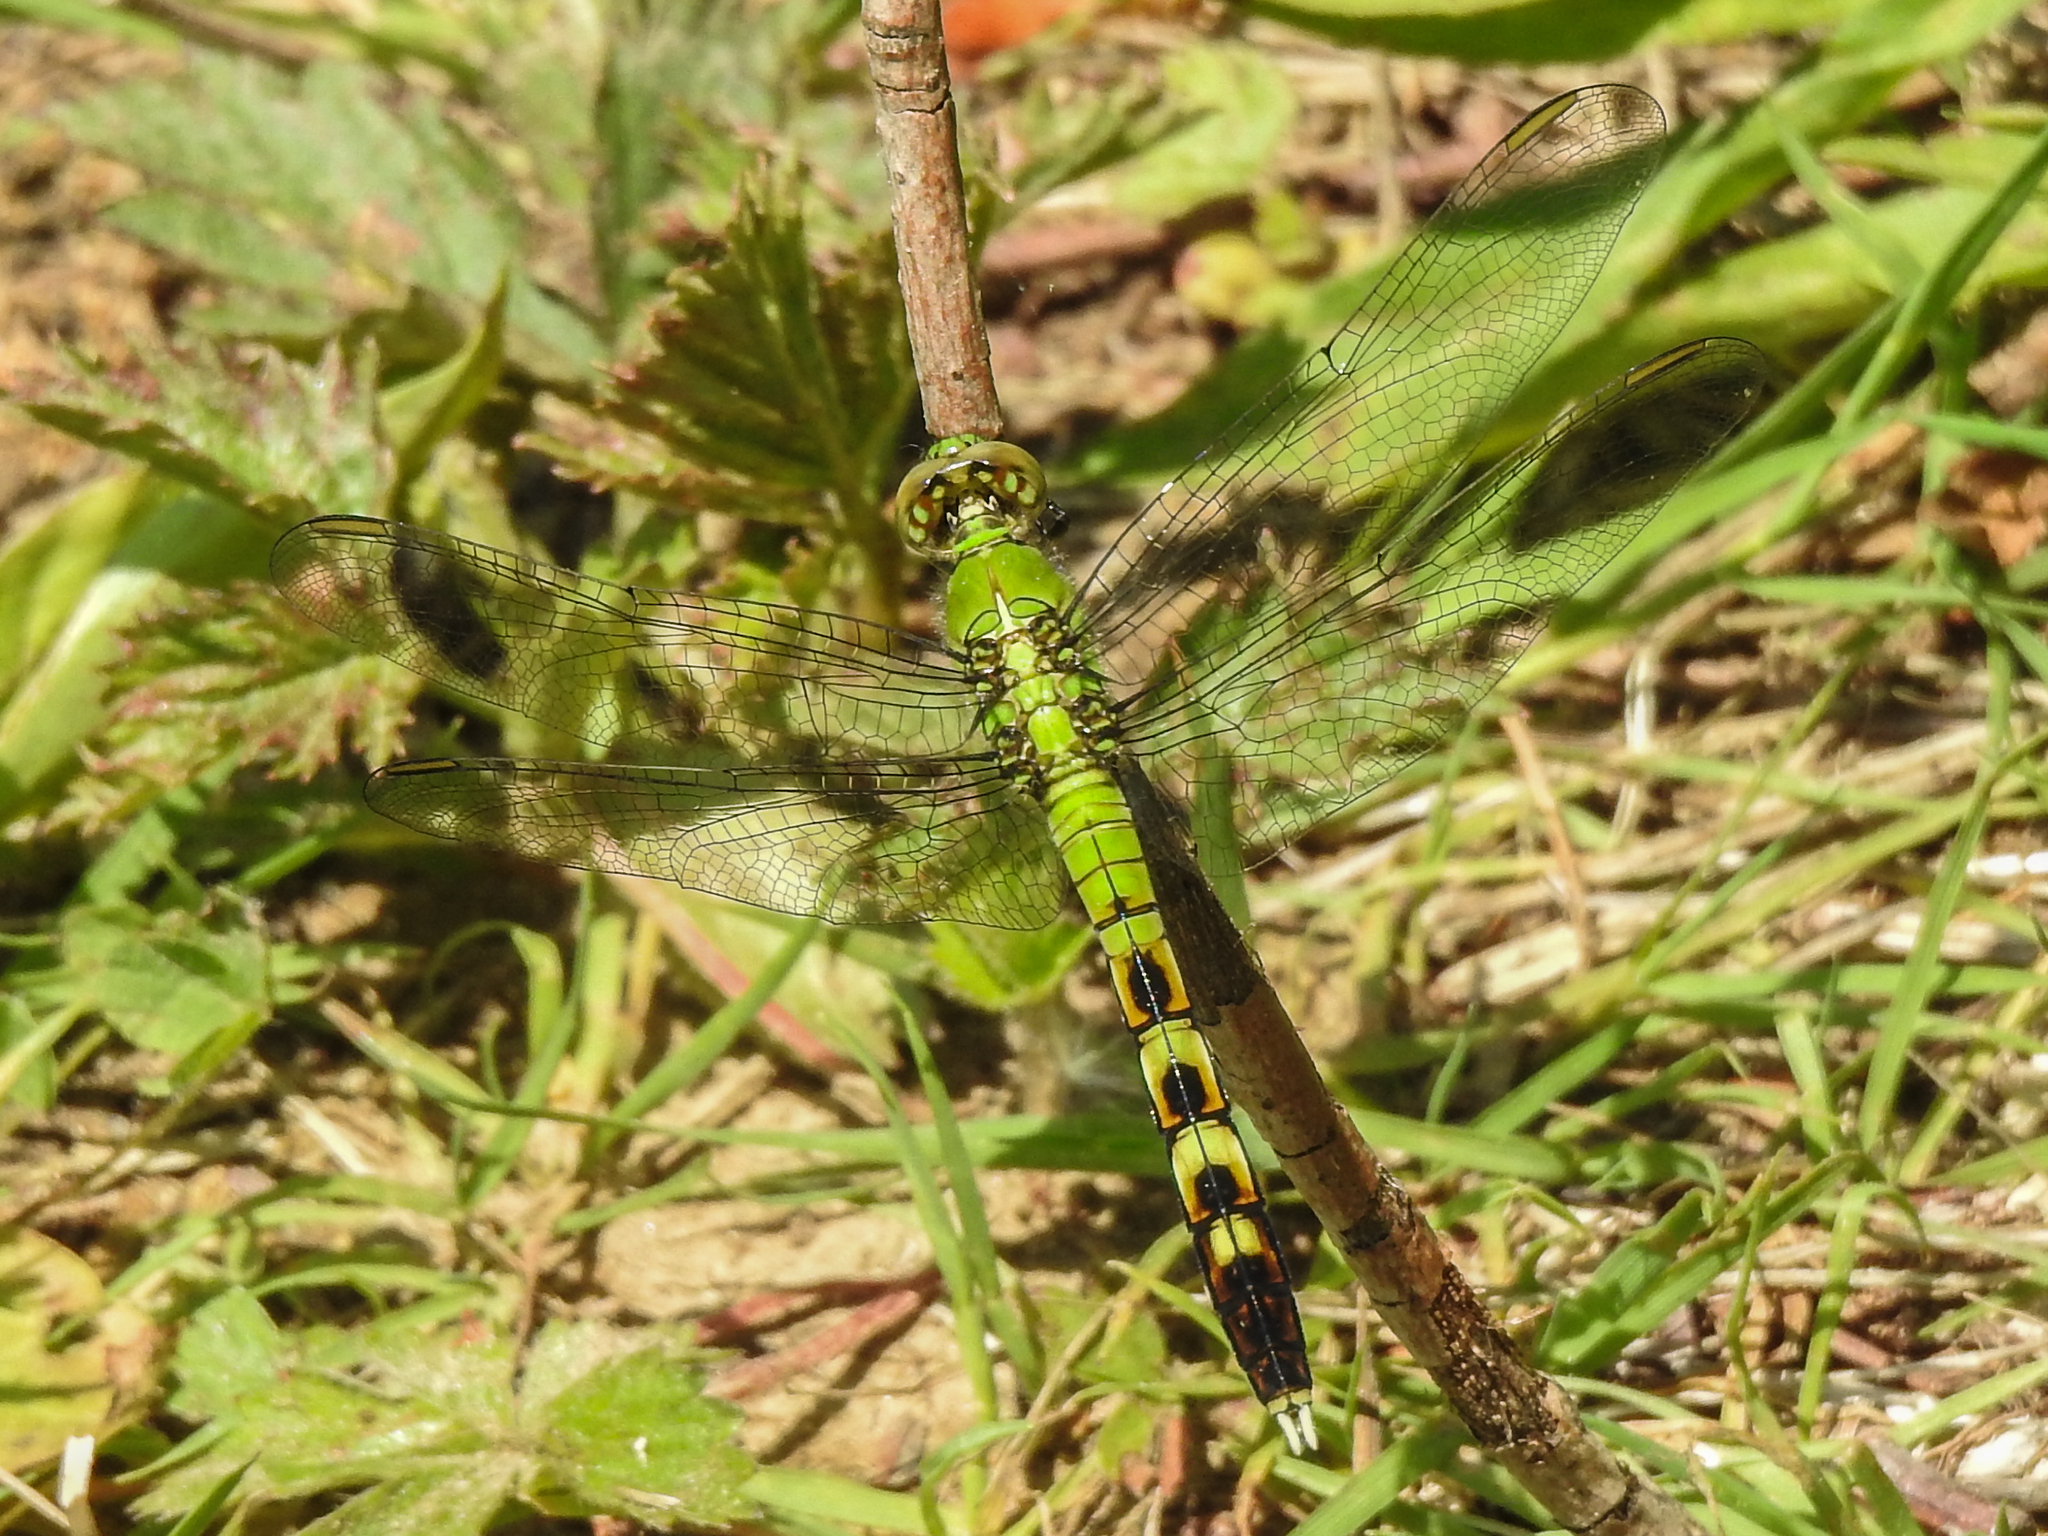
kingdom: Animalia
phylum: Arthropoda
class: Insecta
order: Odonata
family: Libellulidae
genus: Erythemis
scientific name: Erythemis simplicicollis
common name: Eastern pondhawk
